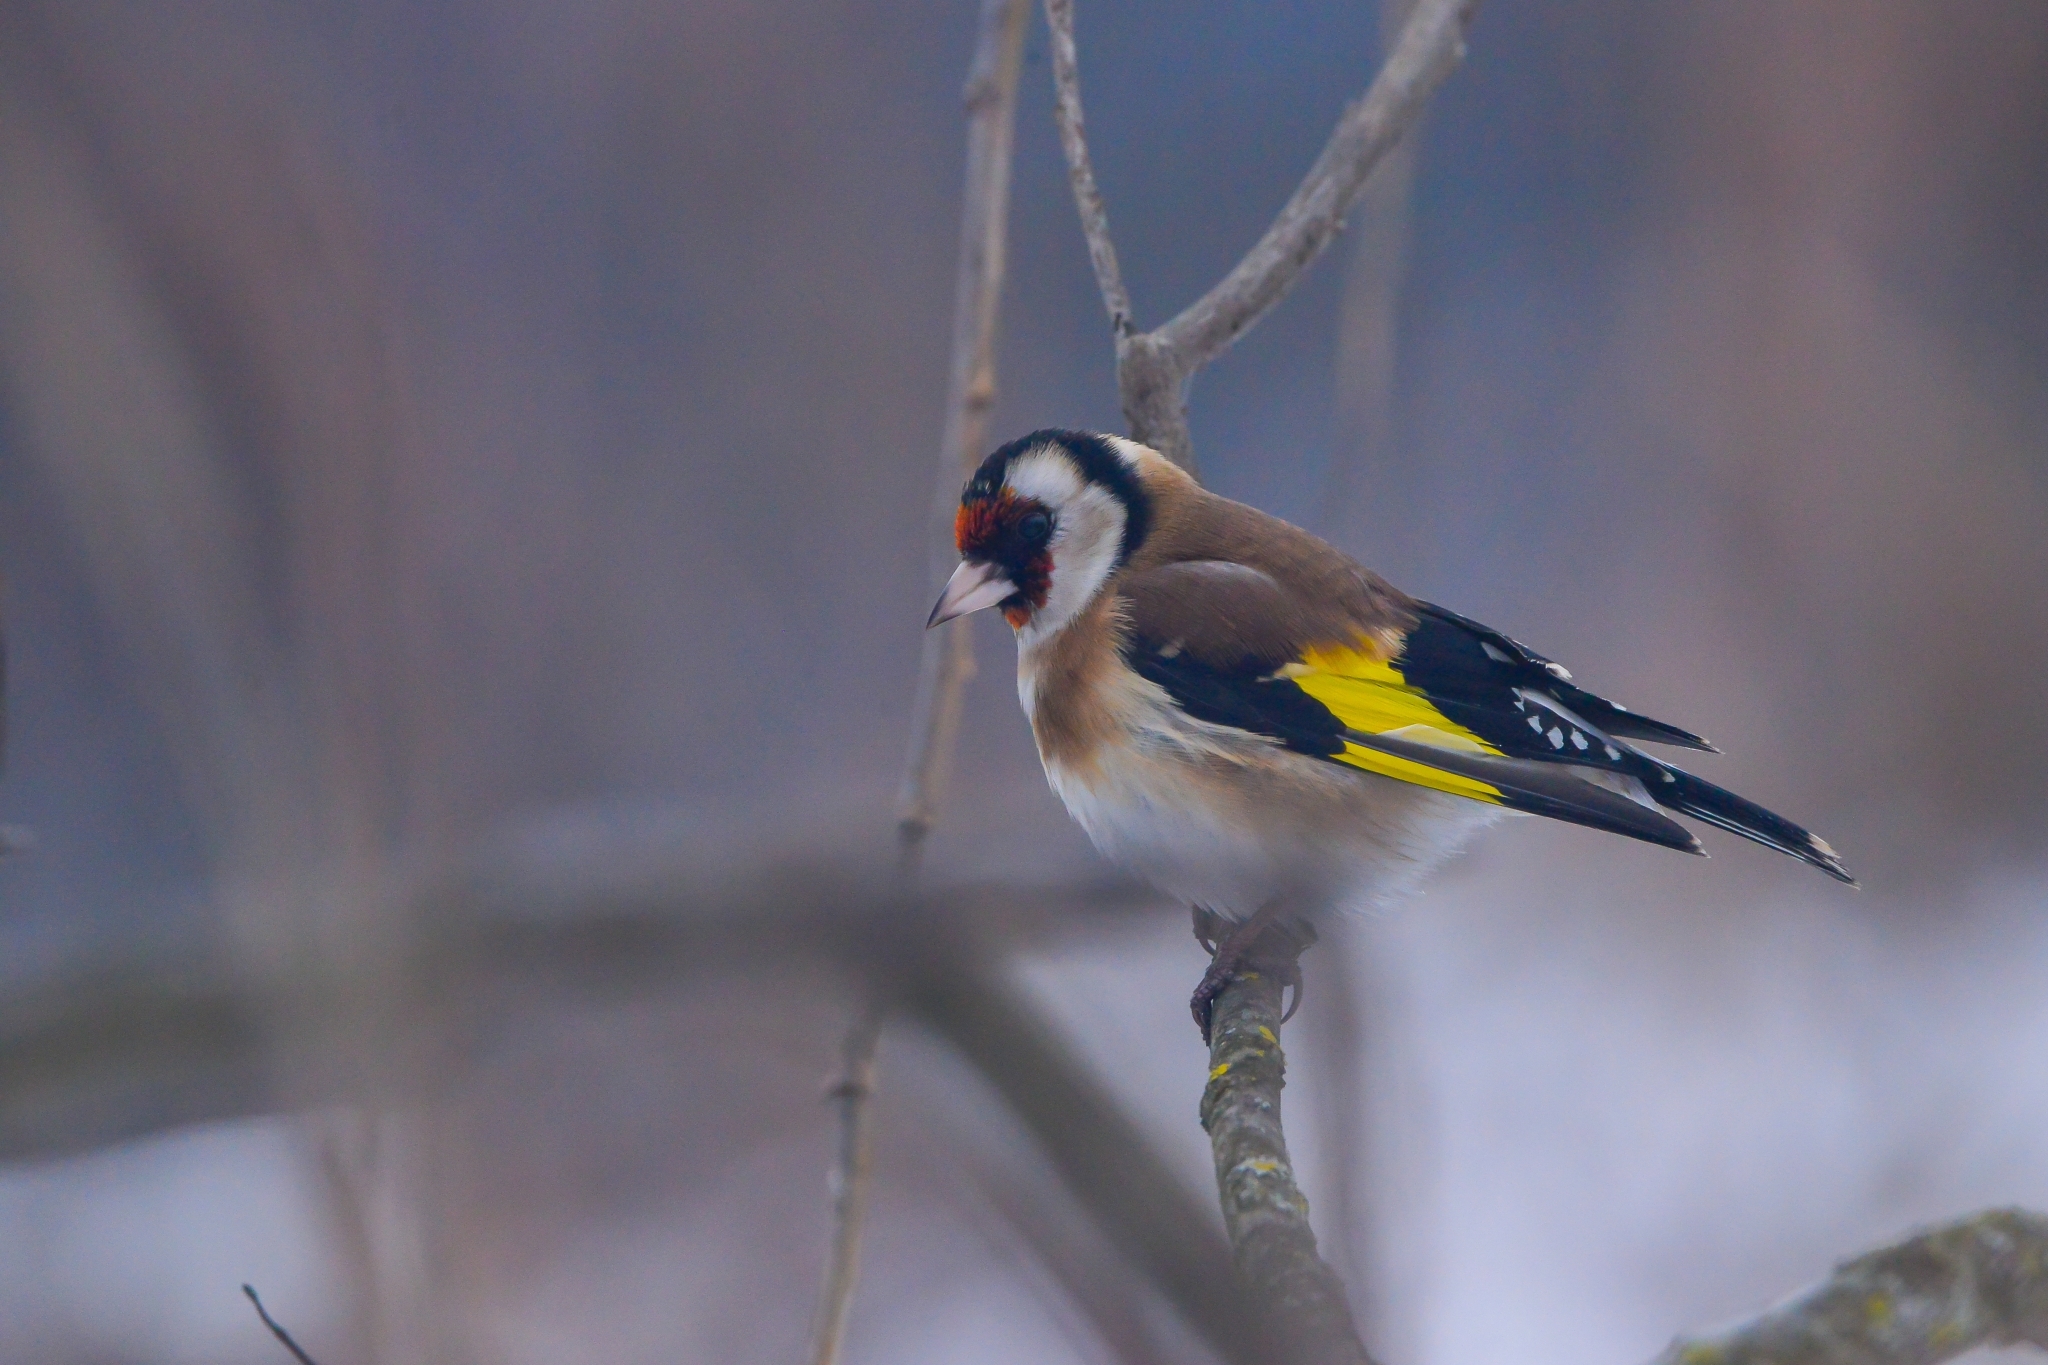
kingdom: Animalia
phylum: Chordata
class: Aves
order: Passeriformes
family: Fringillidae
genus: Carduelis
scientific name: Carduelis carduelis
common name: European goldfinch
